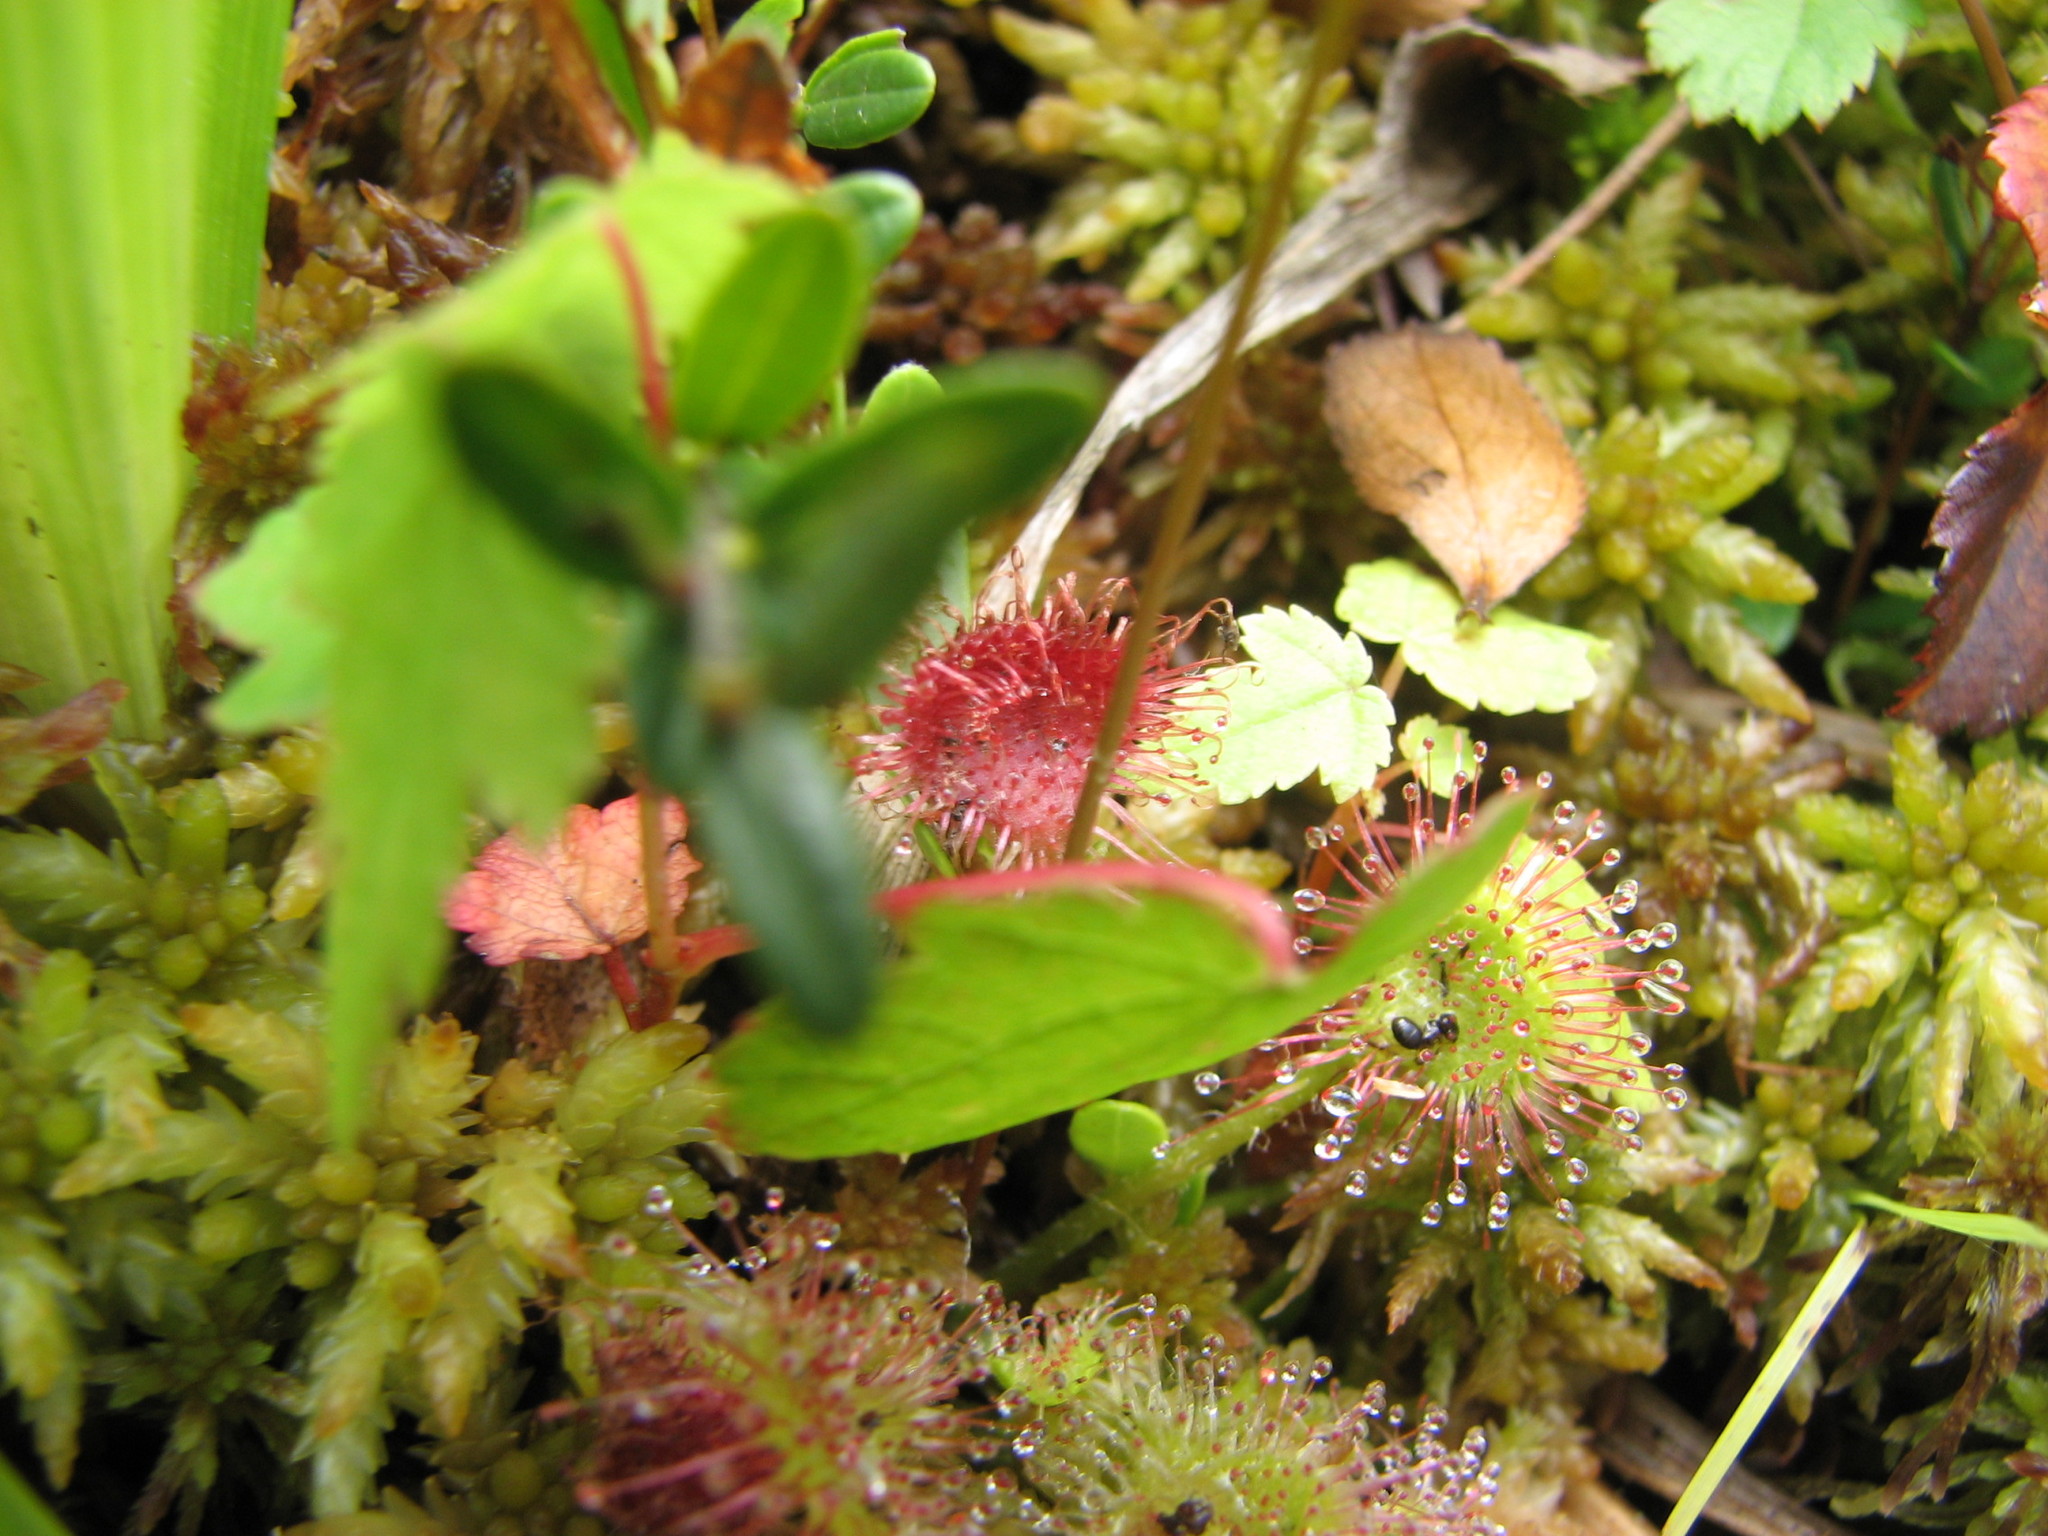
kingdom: Plantae
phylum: Tracheophyta
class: Magnoliopsida
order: Caryophyllales
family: Droseraceae
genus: Drosera
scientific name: Drosera rotundifolia
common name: Round-leaved sundew
